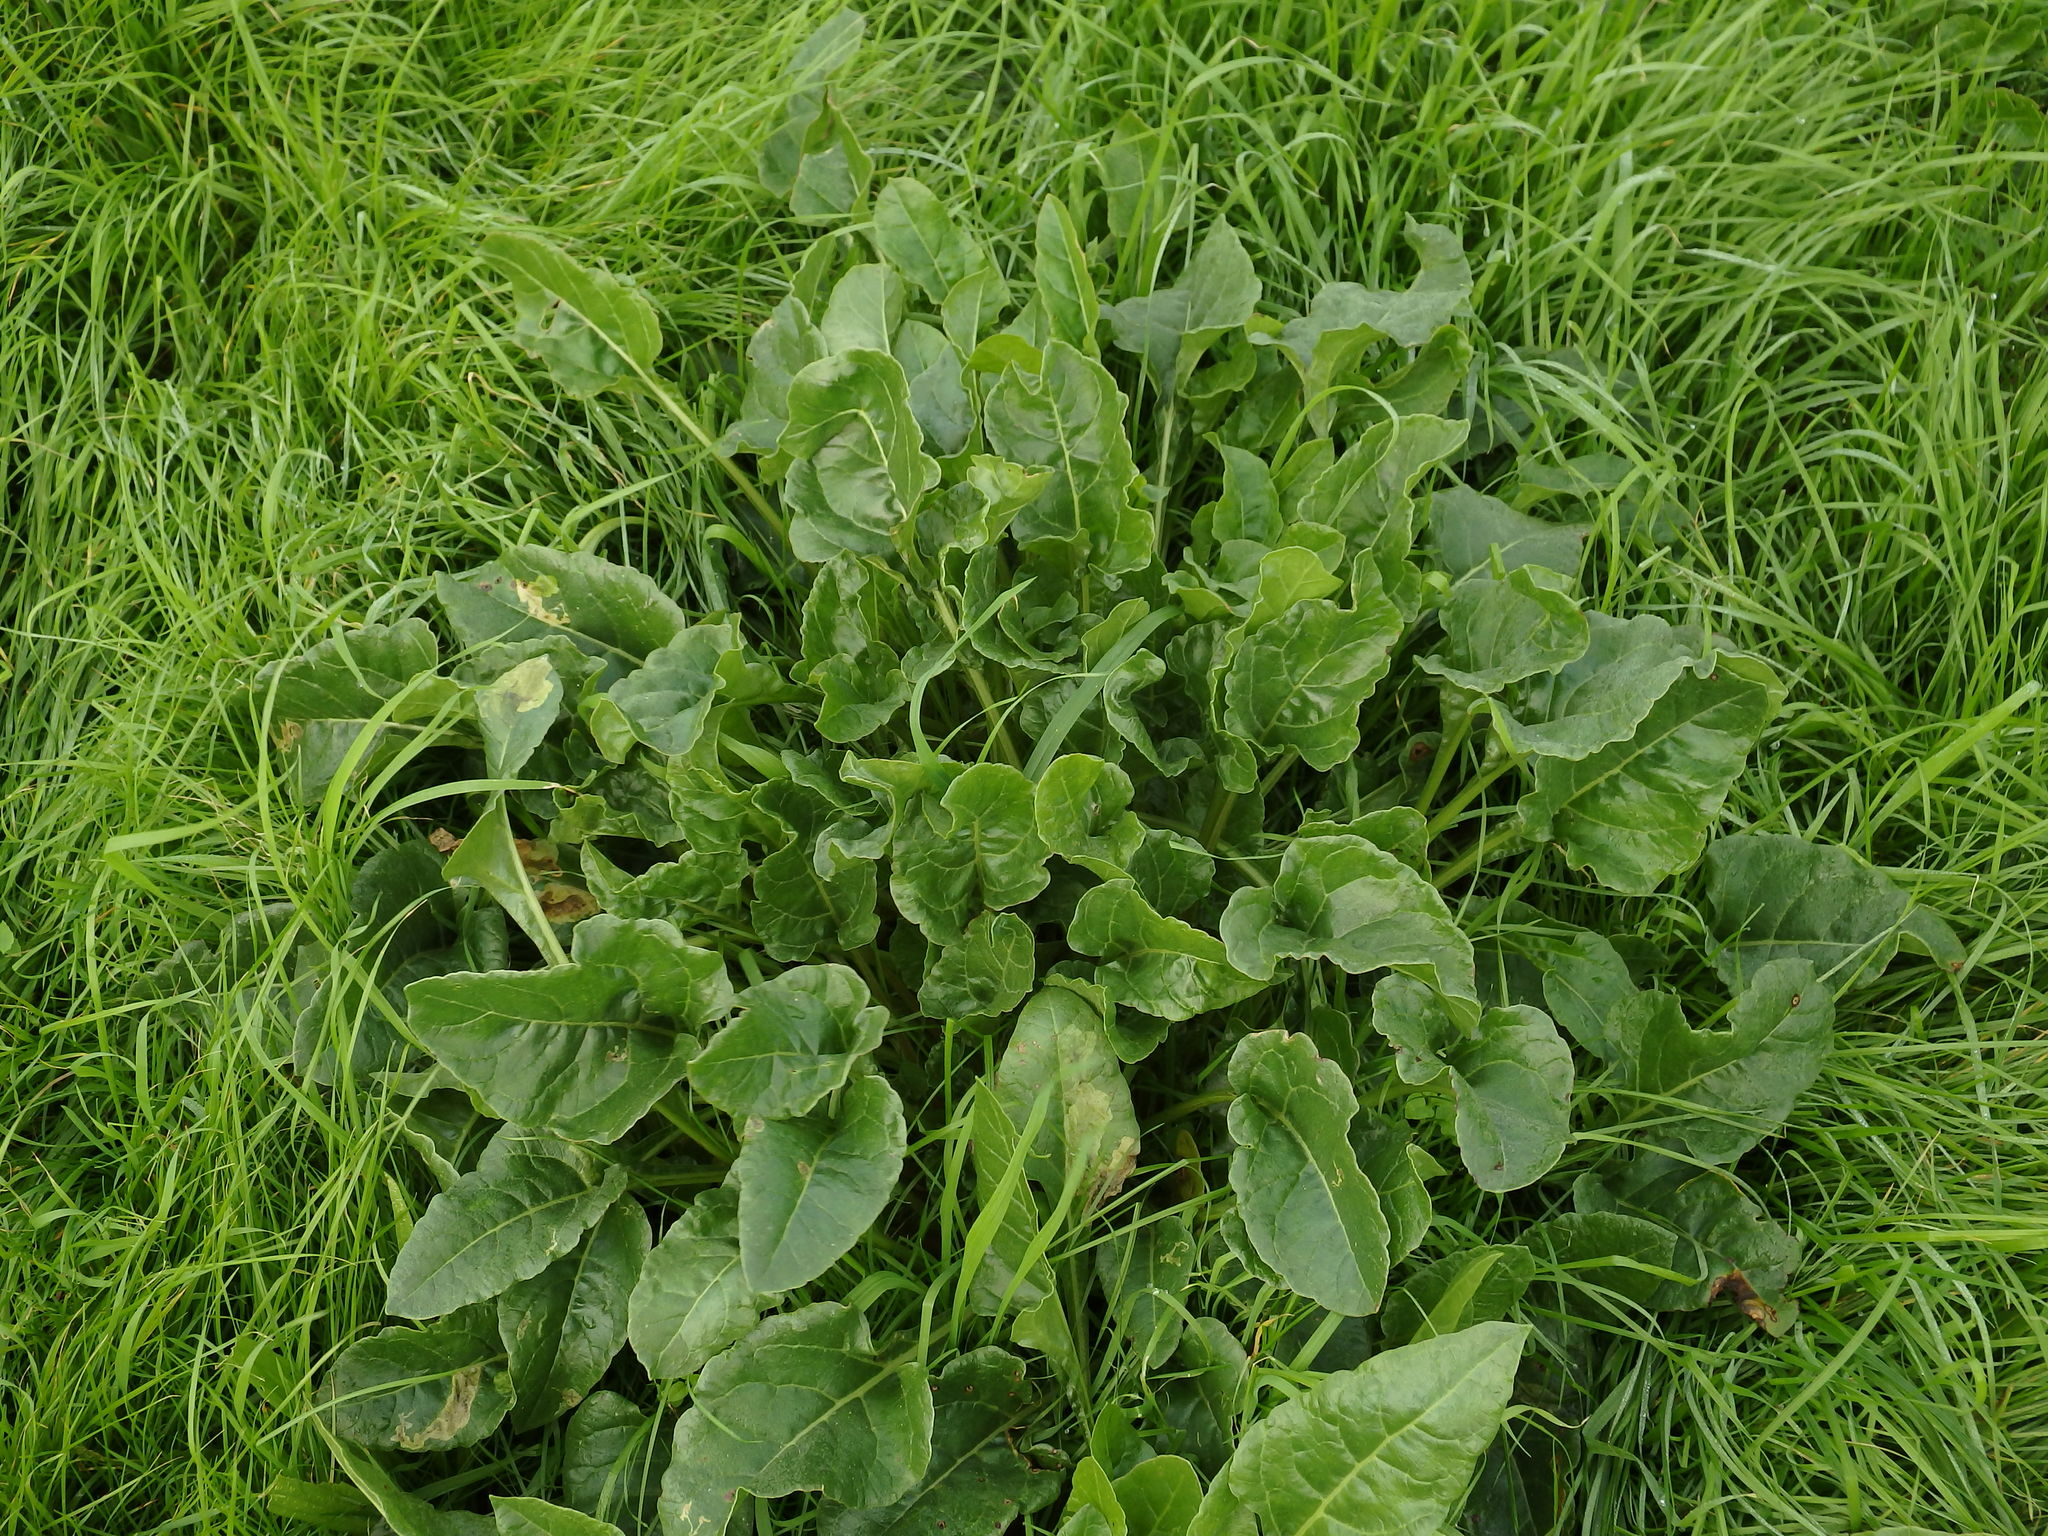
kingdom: Plantae
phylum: Tracheophyta
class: Magnoliopsida
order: Caryophyllales
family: Amaranthaceae
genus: Beta
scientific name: Beta vulgaris
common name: Beet
